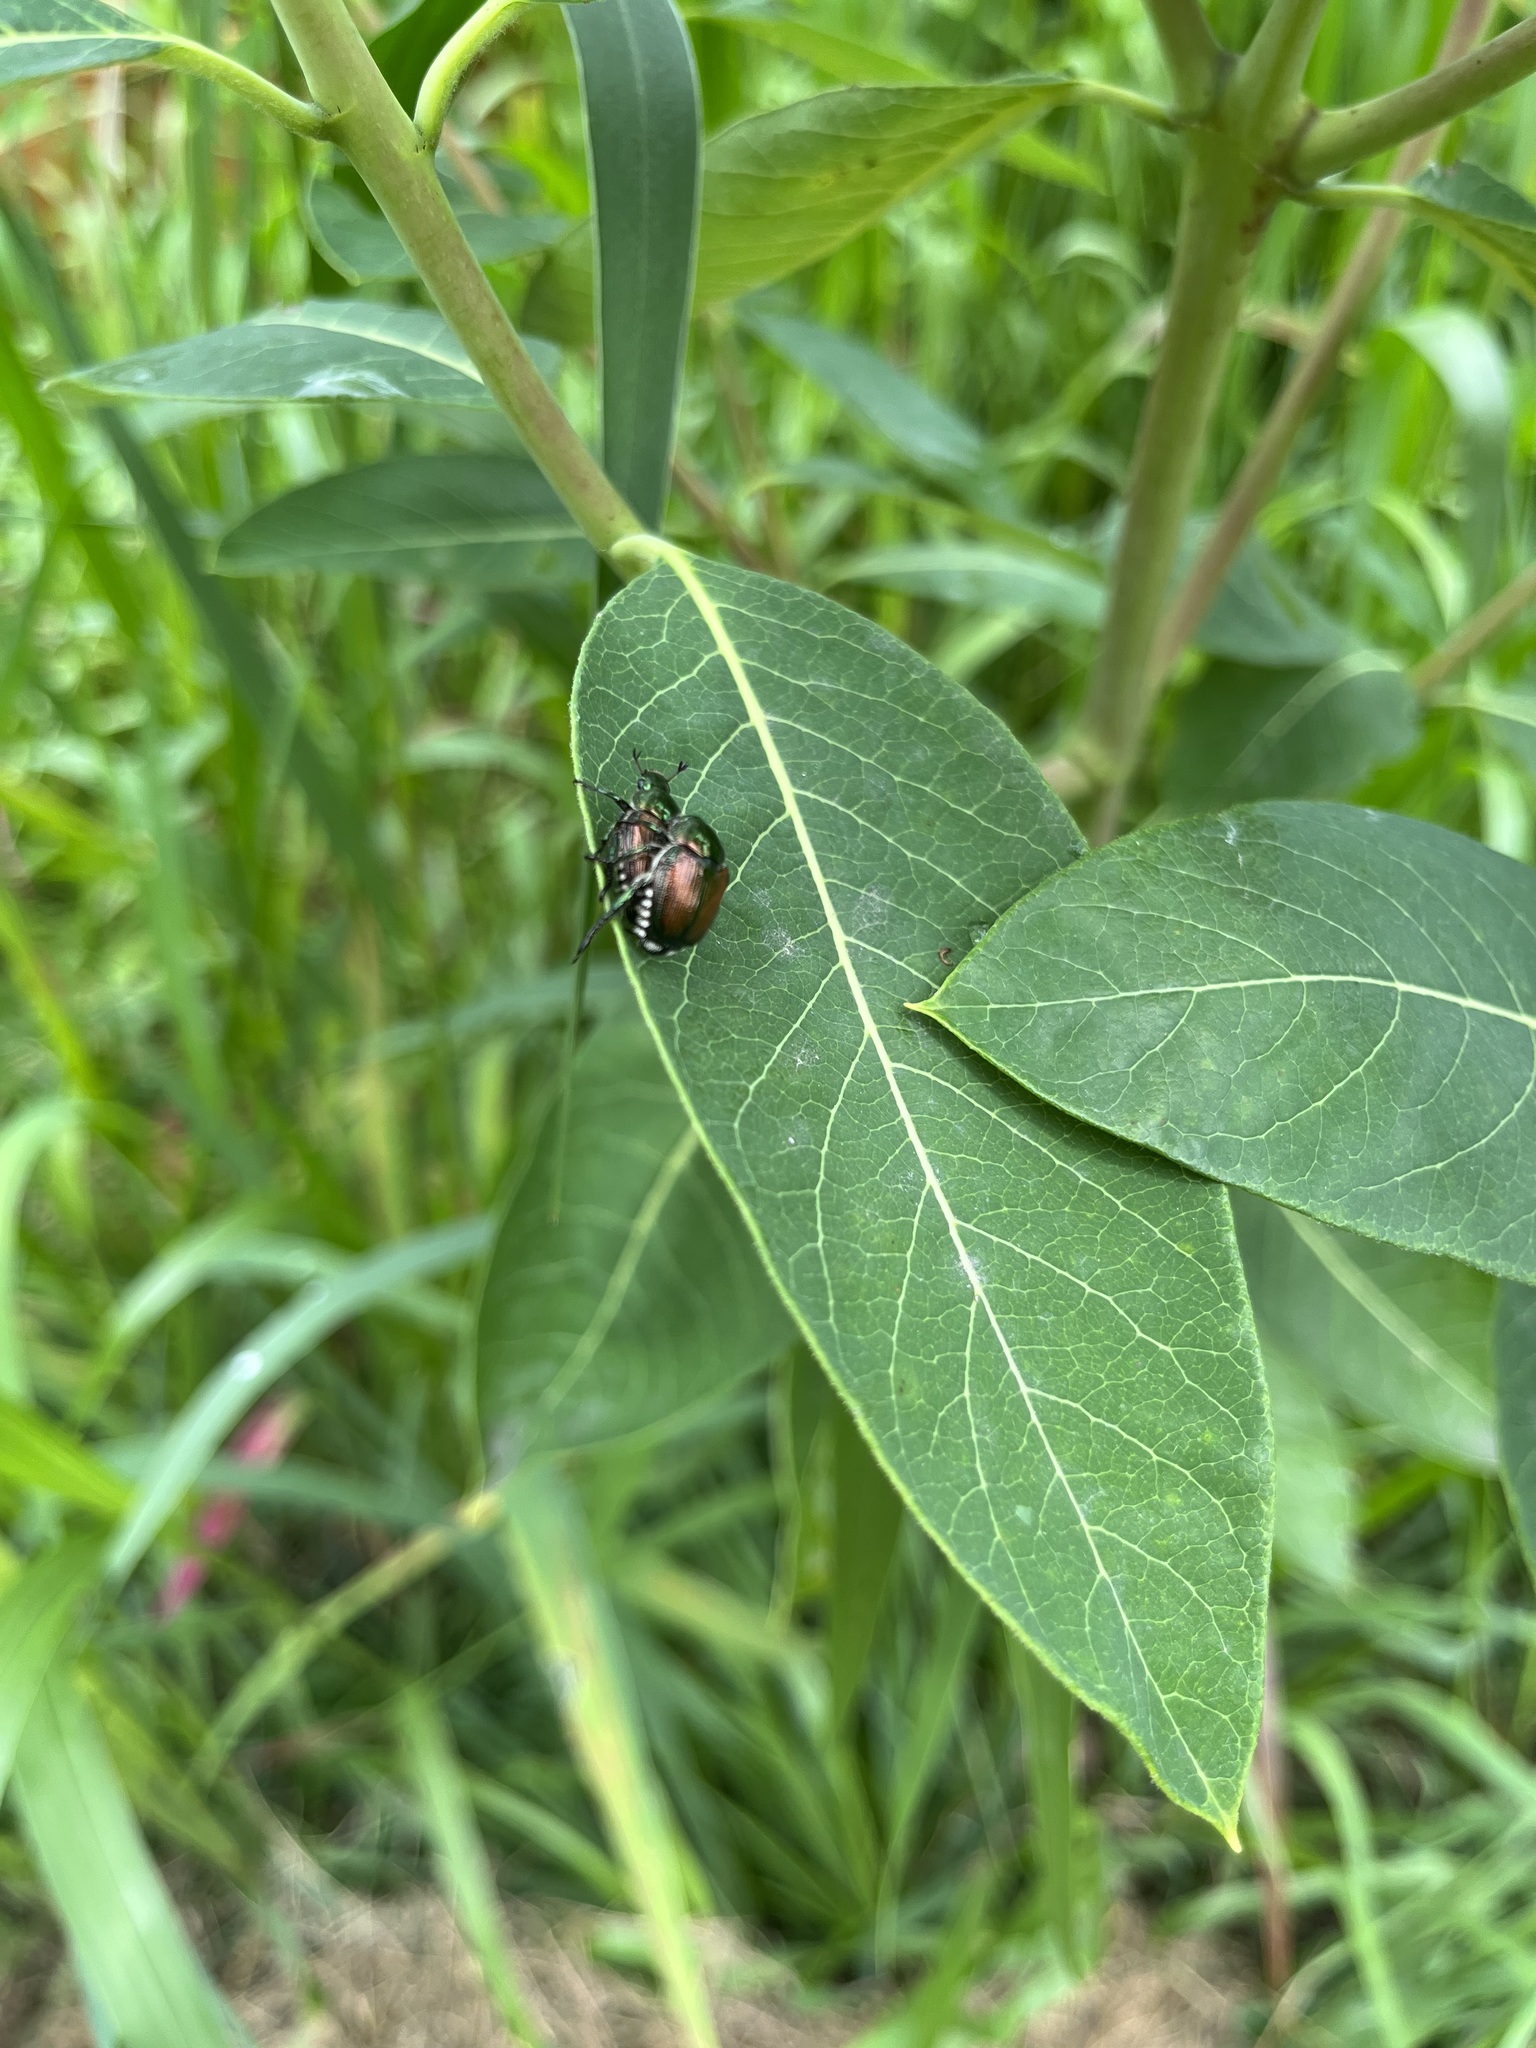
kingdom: Animalia
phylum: Arthropoda
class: Insecta
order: Coleoptera
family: Scarabaeidae
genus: Popillia
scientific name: Popillia japonica
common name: Japanese beetle
